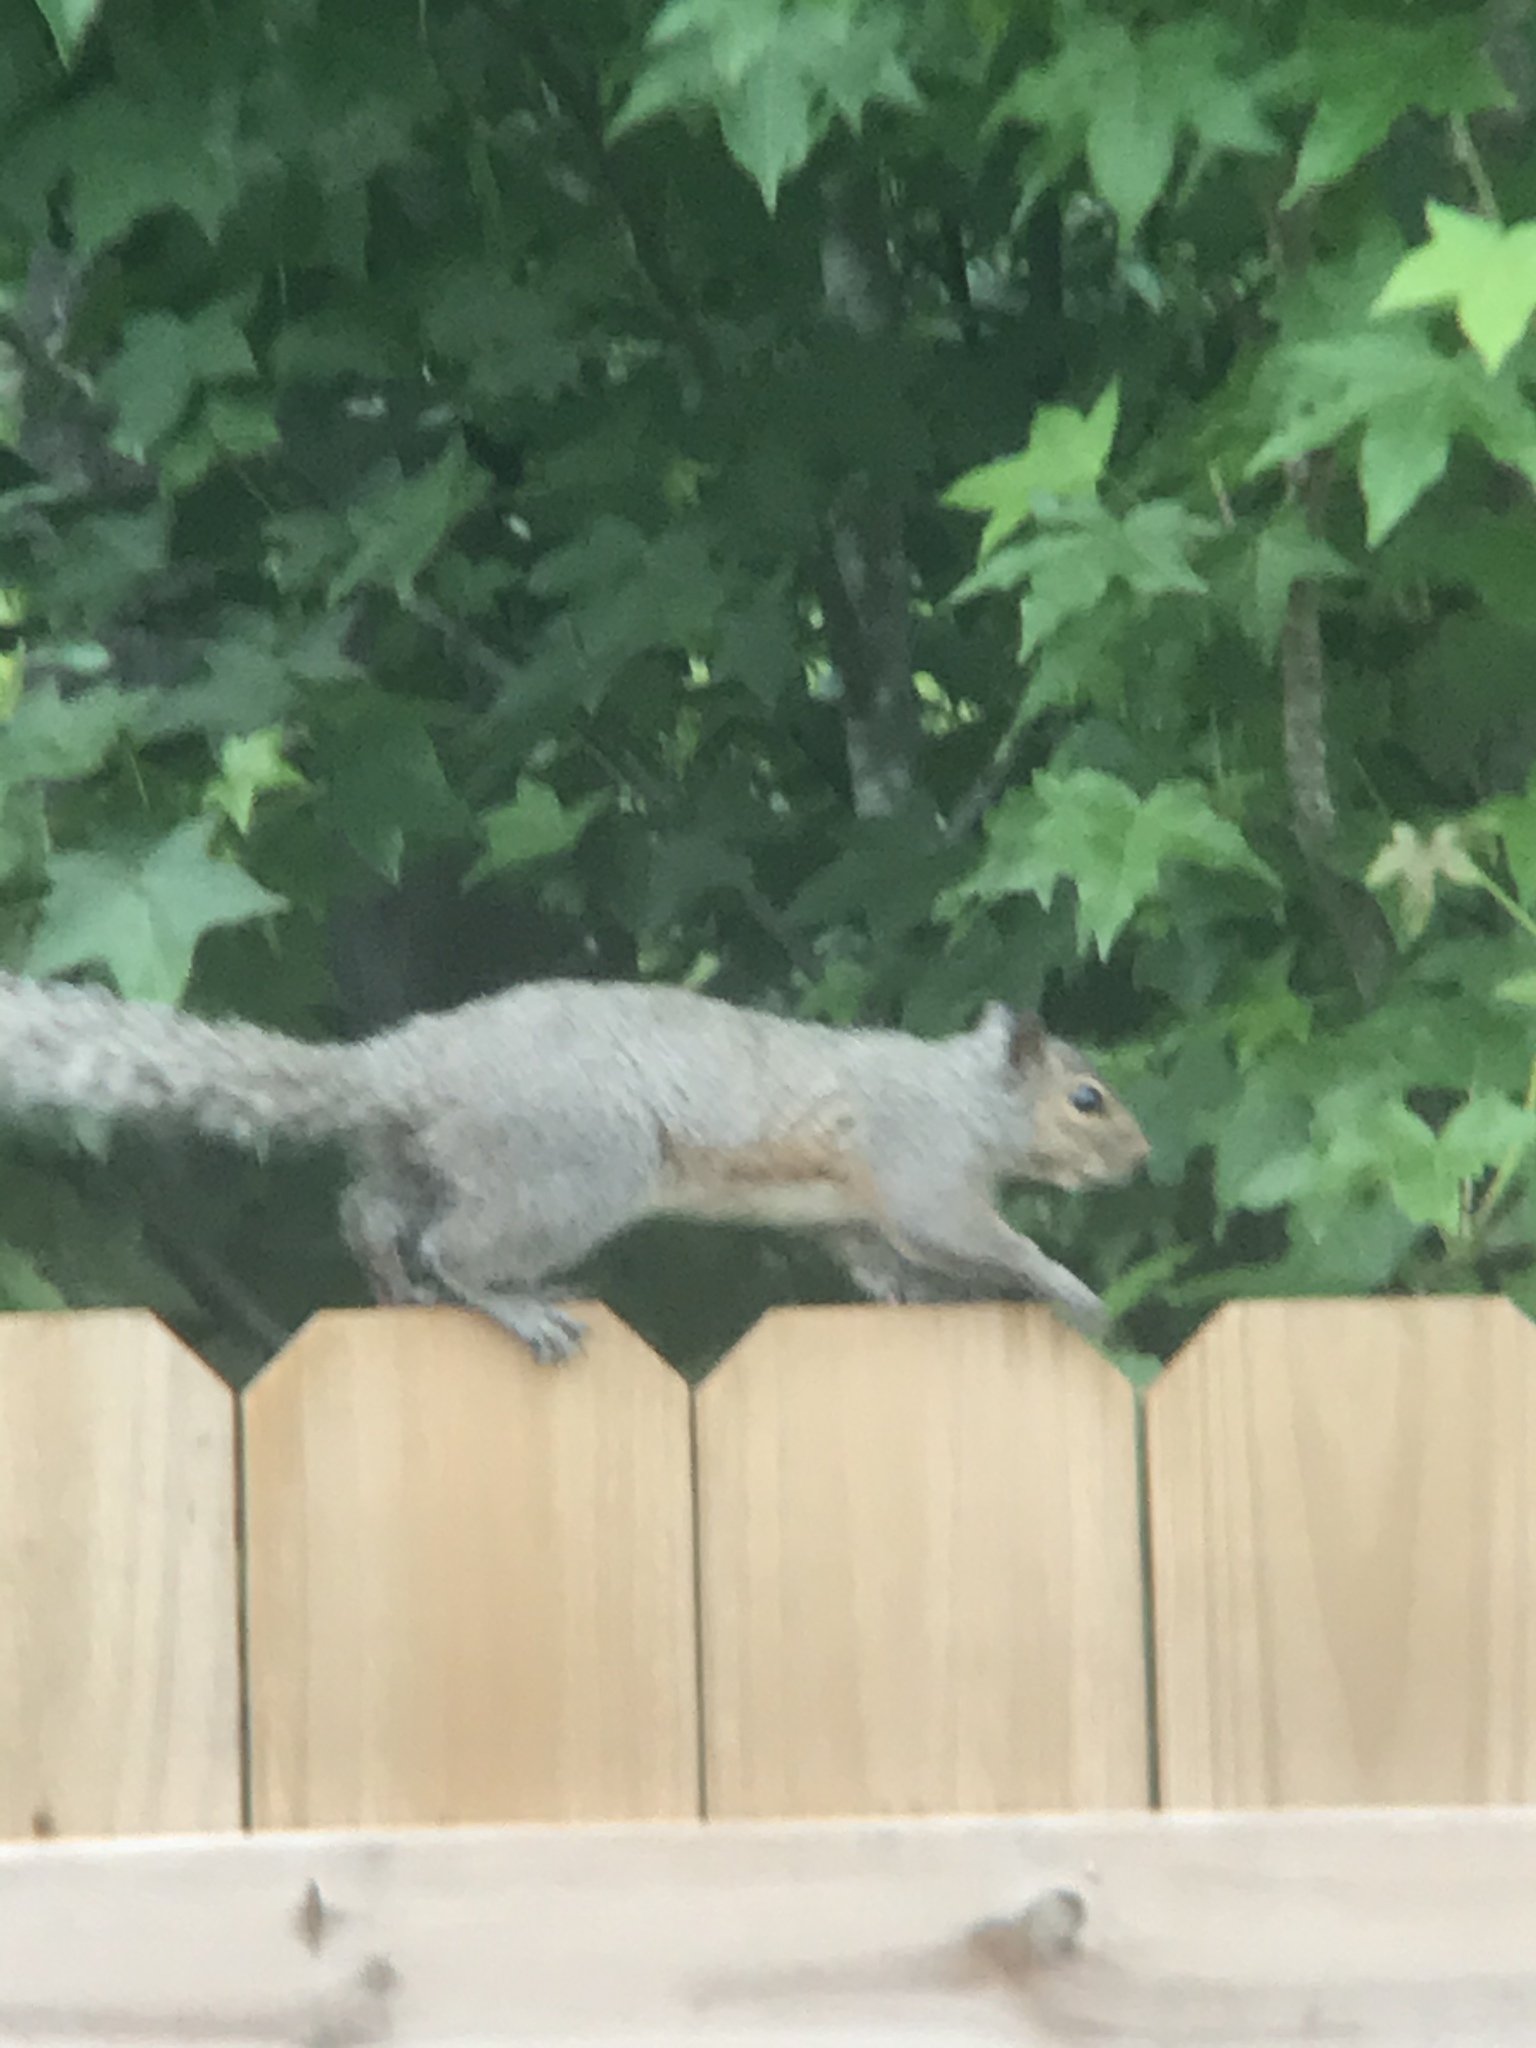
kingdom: Animalia
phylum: Chordata
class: Mammalia
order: Rodentia
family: Sciuridae
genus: Sciurus
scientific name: Sciurus carolinensis
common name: Eastern gray squirrel
